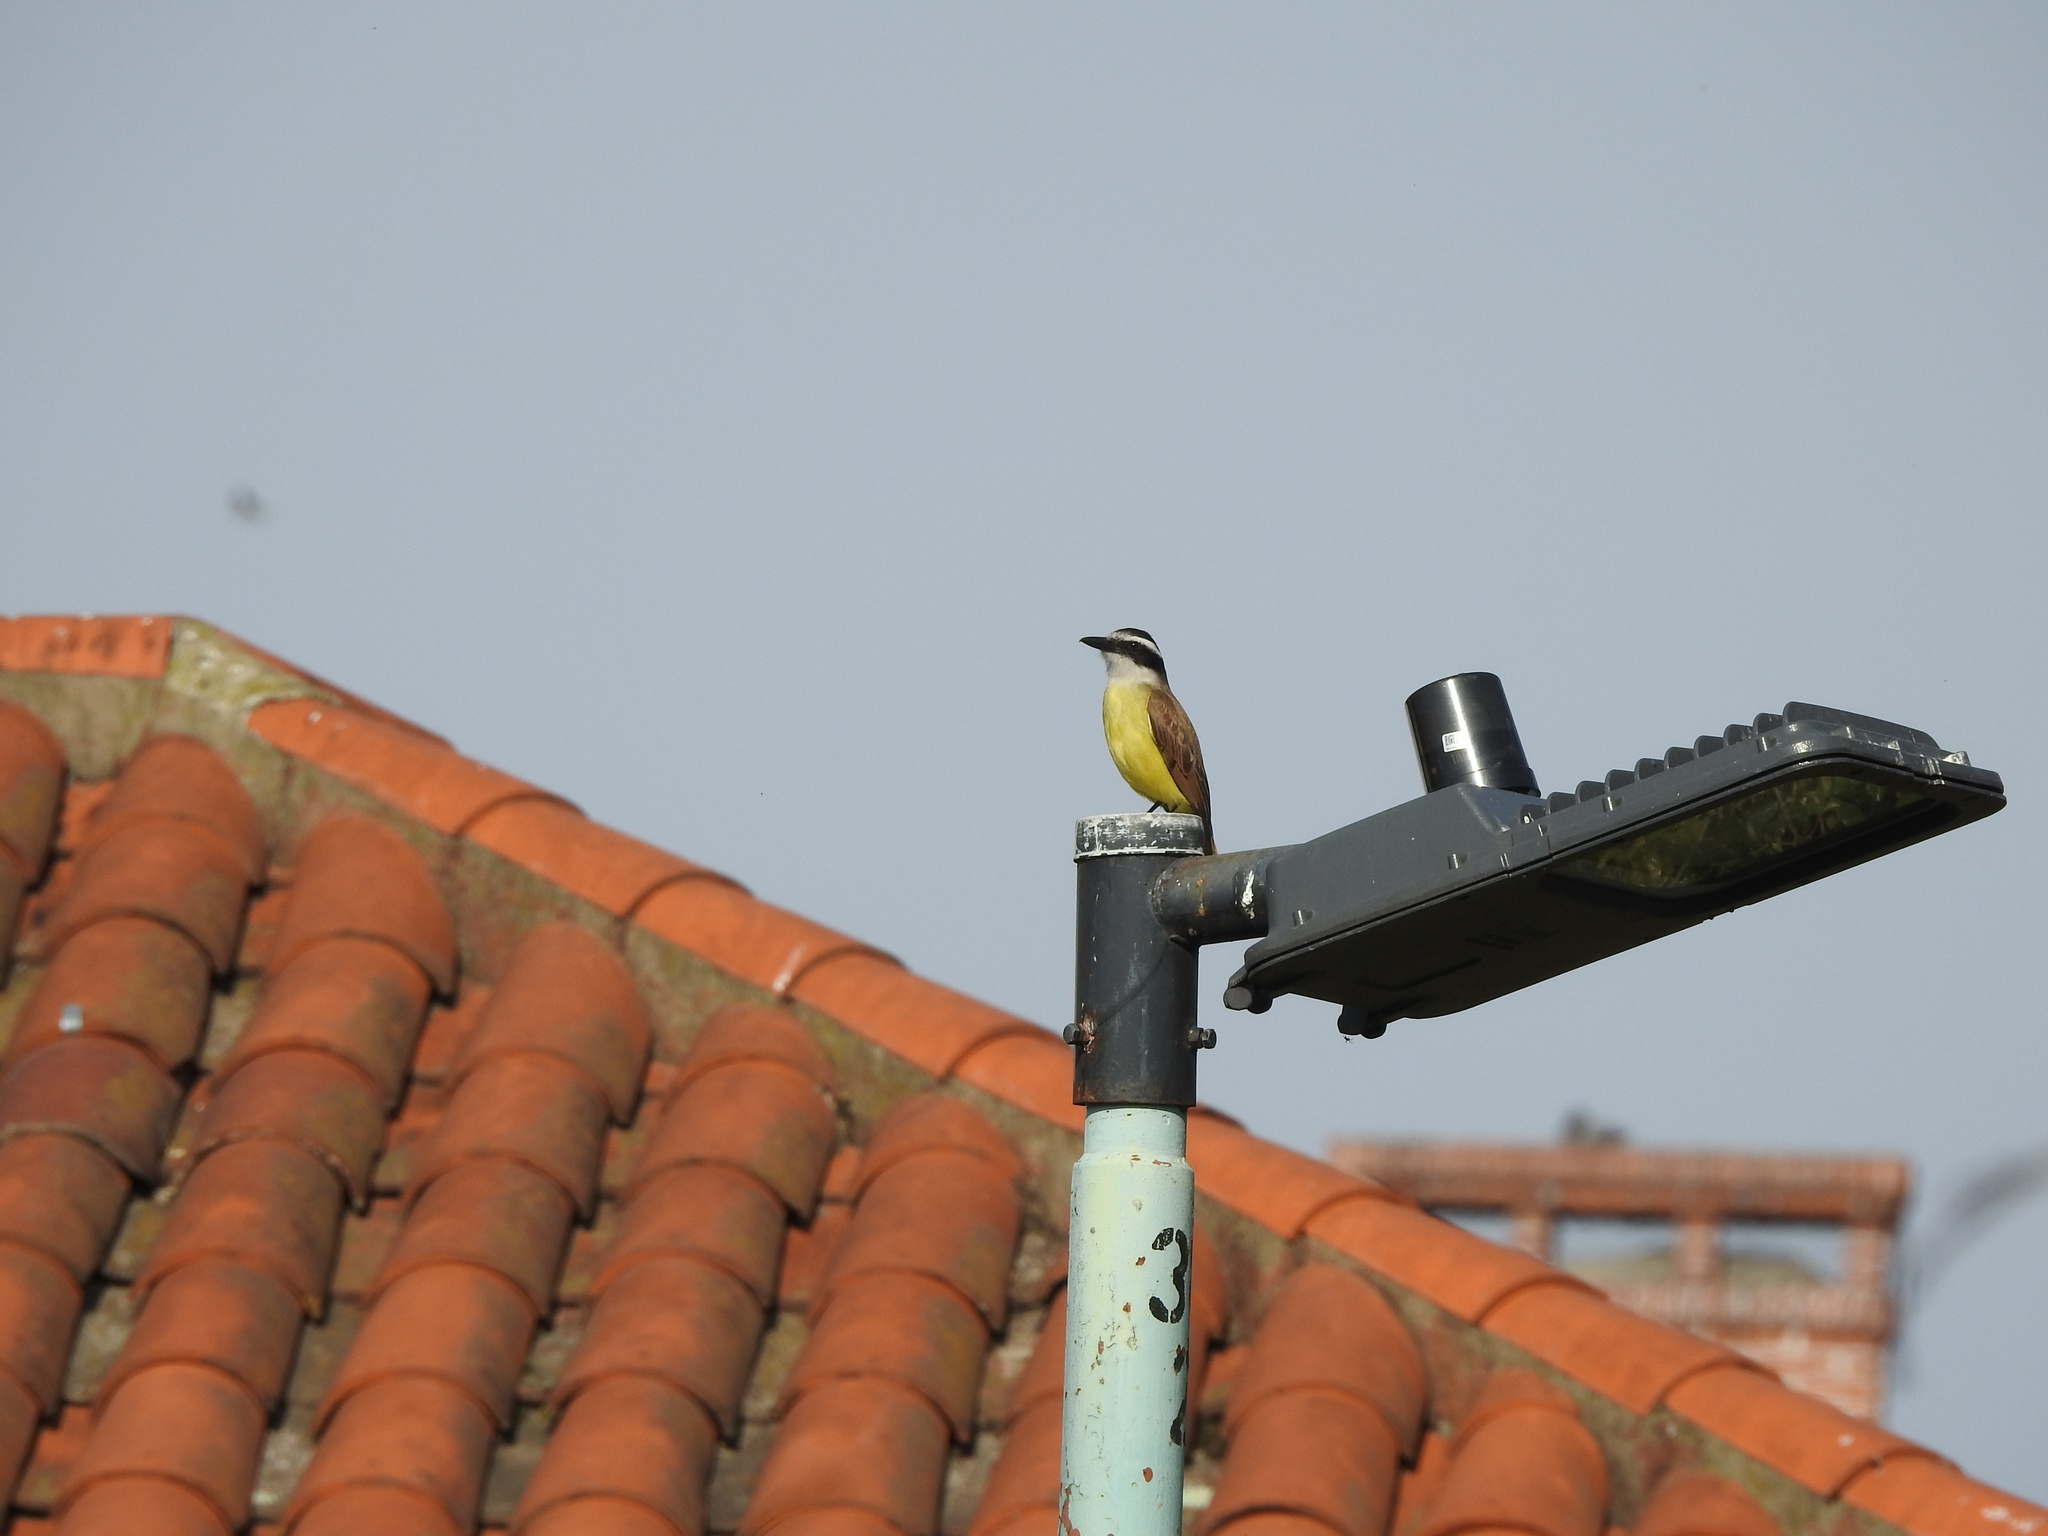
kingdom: Animalia
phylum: Chordata
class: Aves
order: Passeriformes
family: Tyrannidae
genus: Pitangus
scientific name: Pitangus sulphuratus
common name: Great kiskadee
